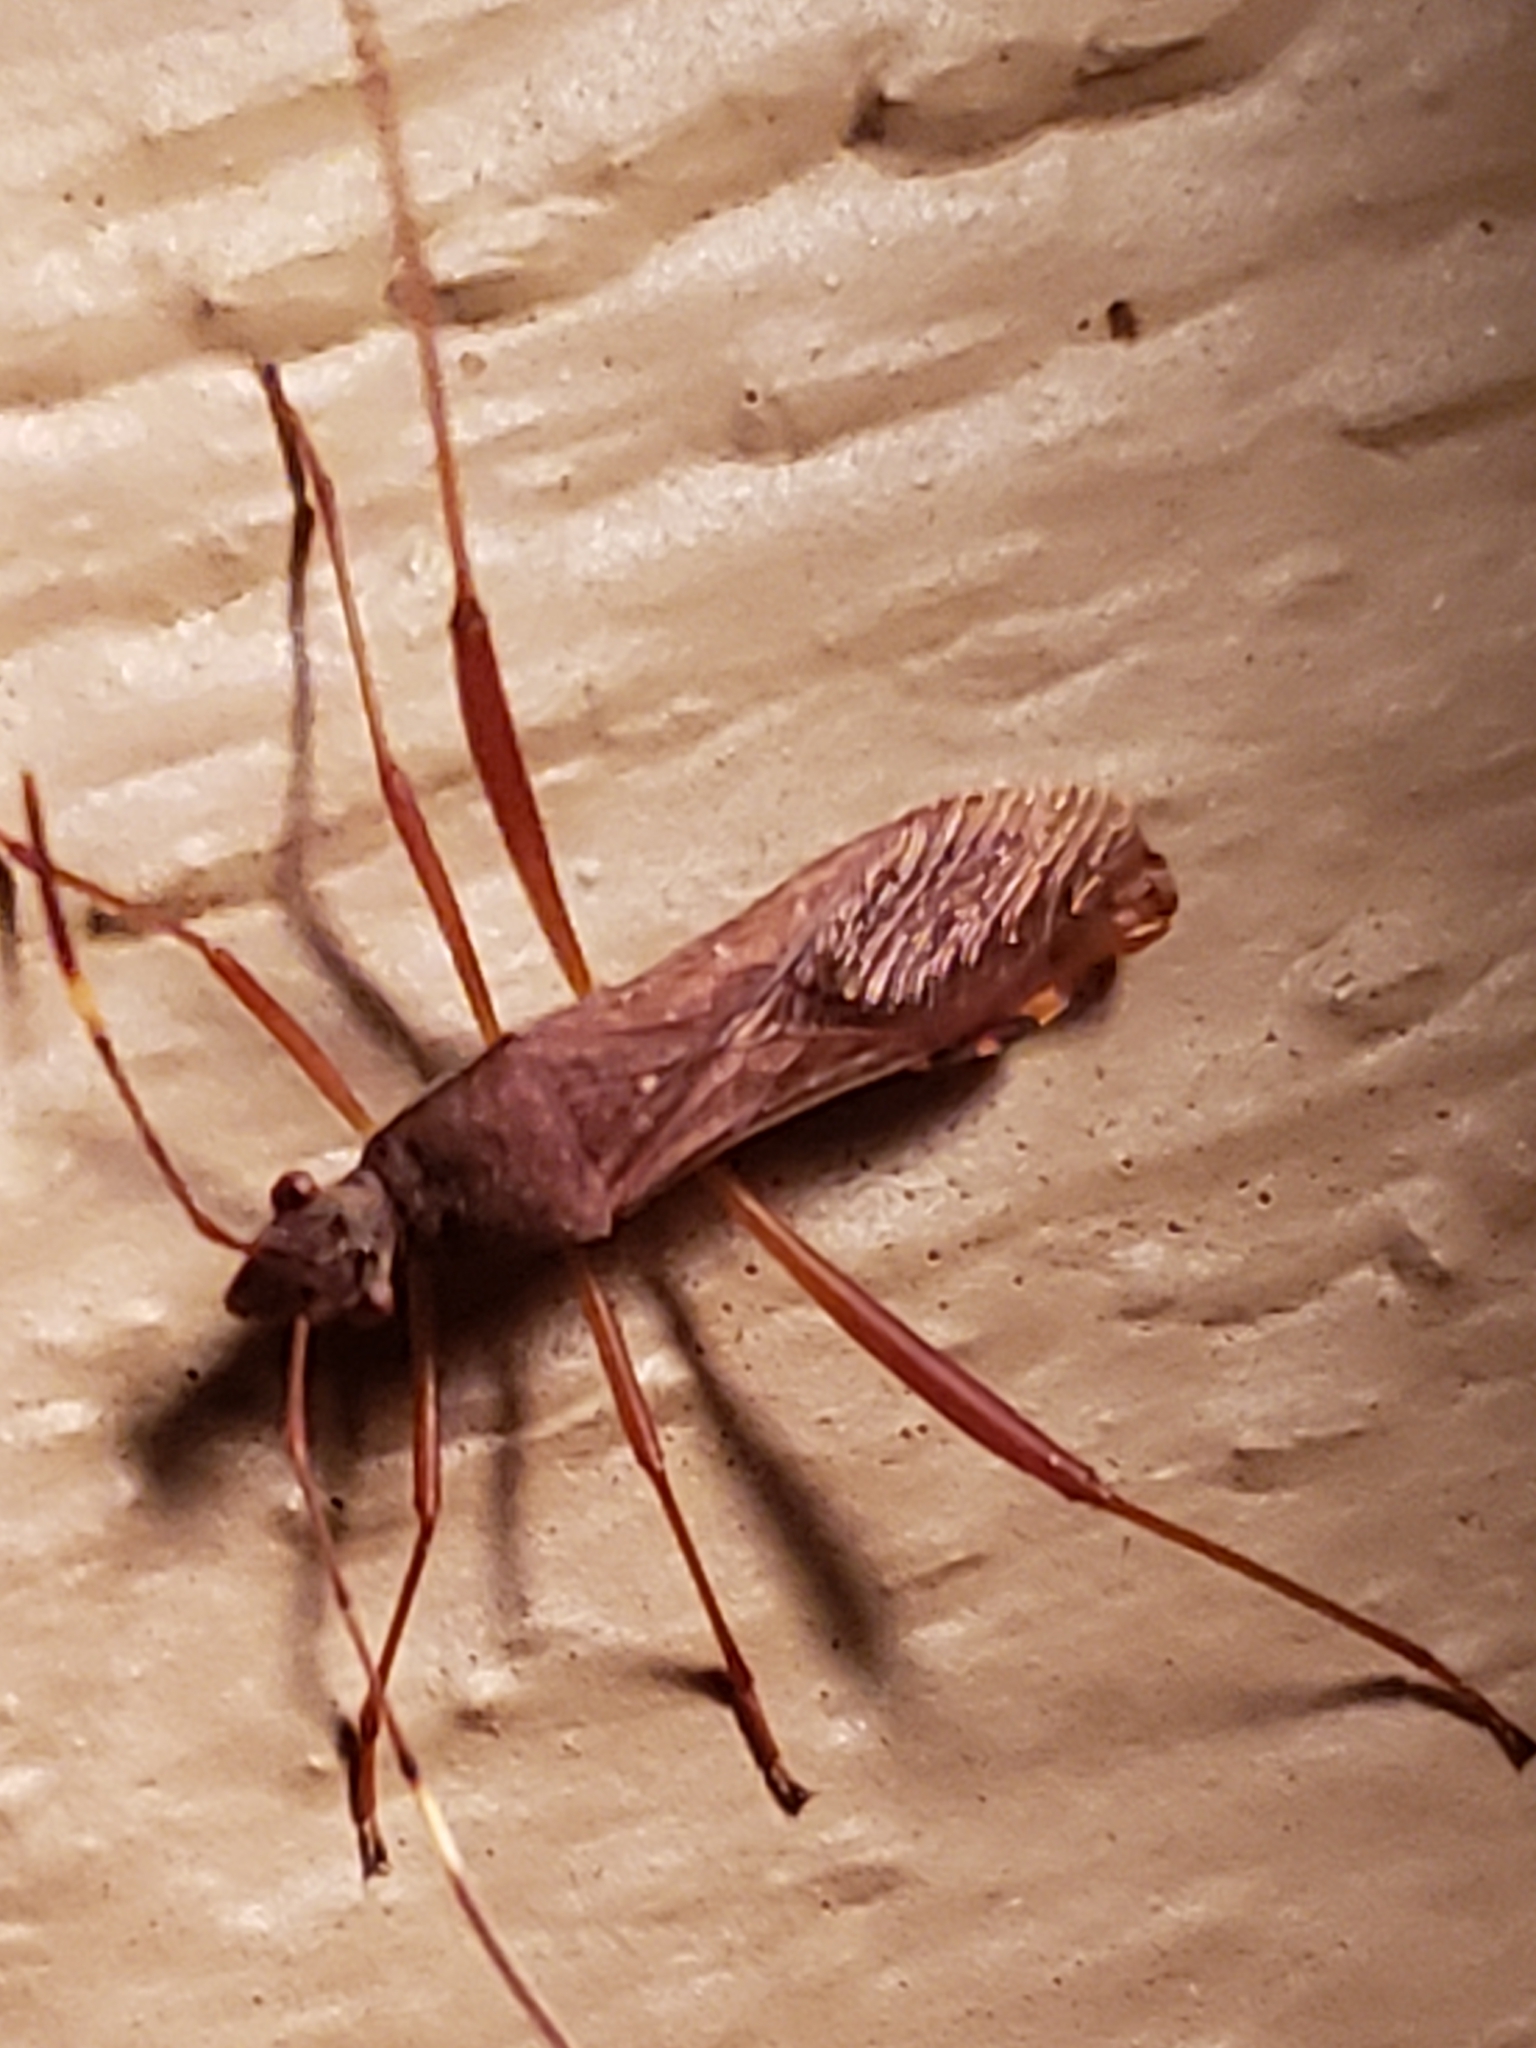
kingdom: Animalia
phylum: Arthropoda
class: Insecta
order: Hemiptera
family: Alydidae
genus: Megalotomus
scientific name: Megalotomus quinquespinosus
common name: Lupine bug
